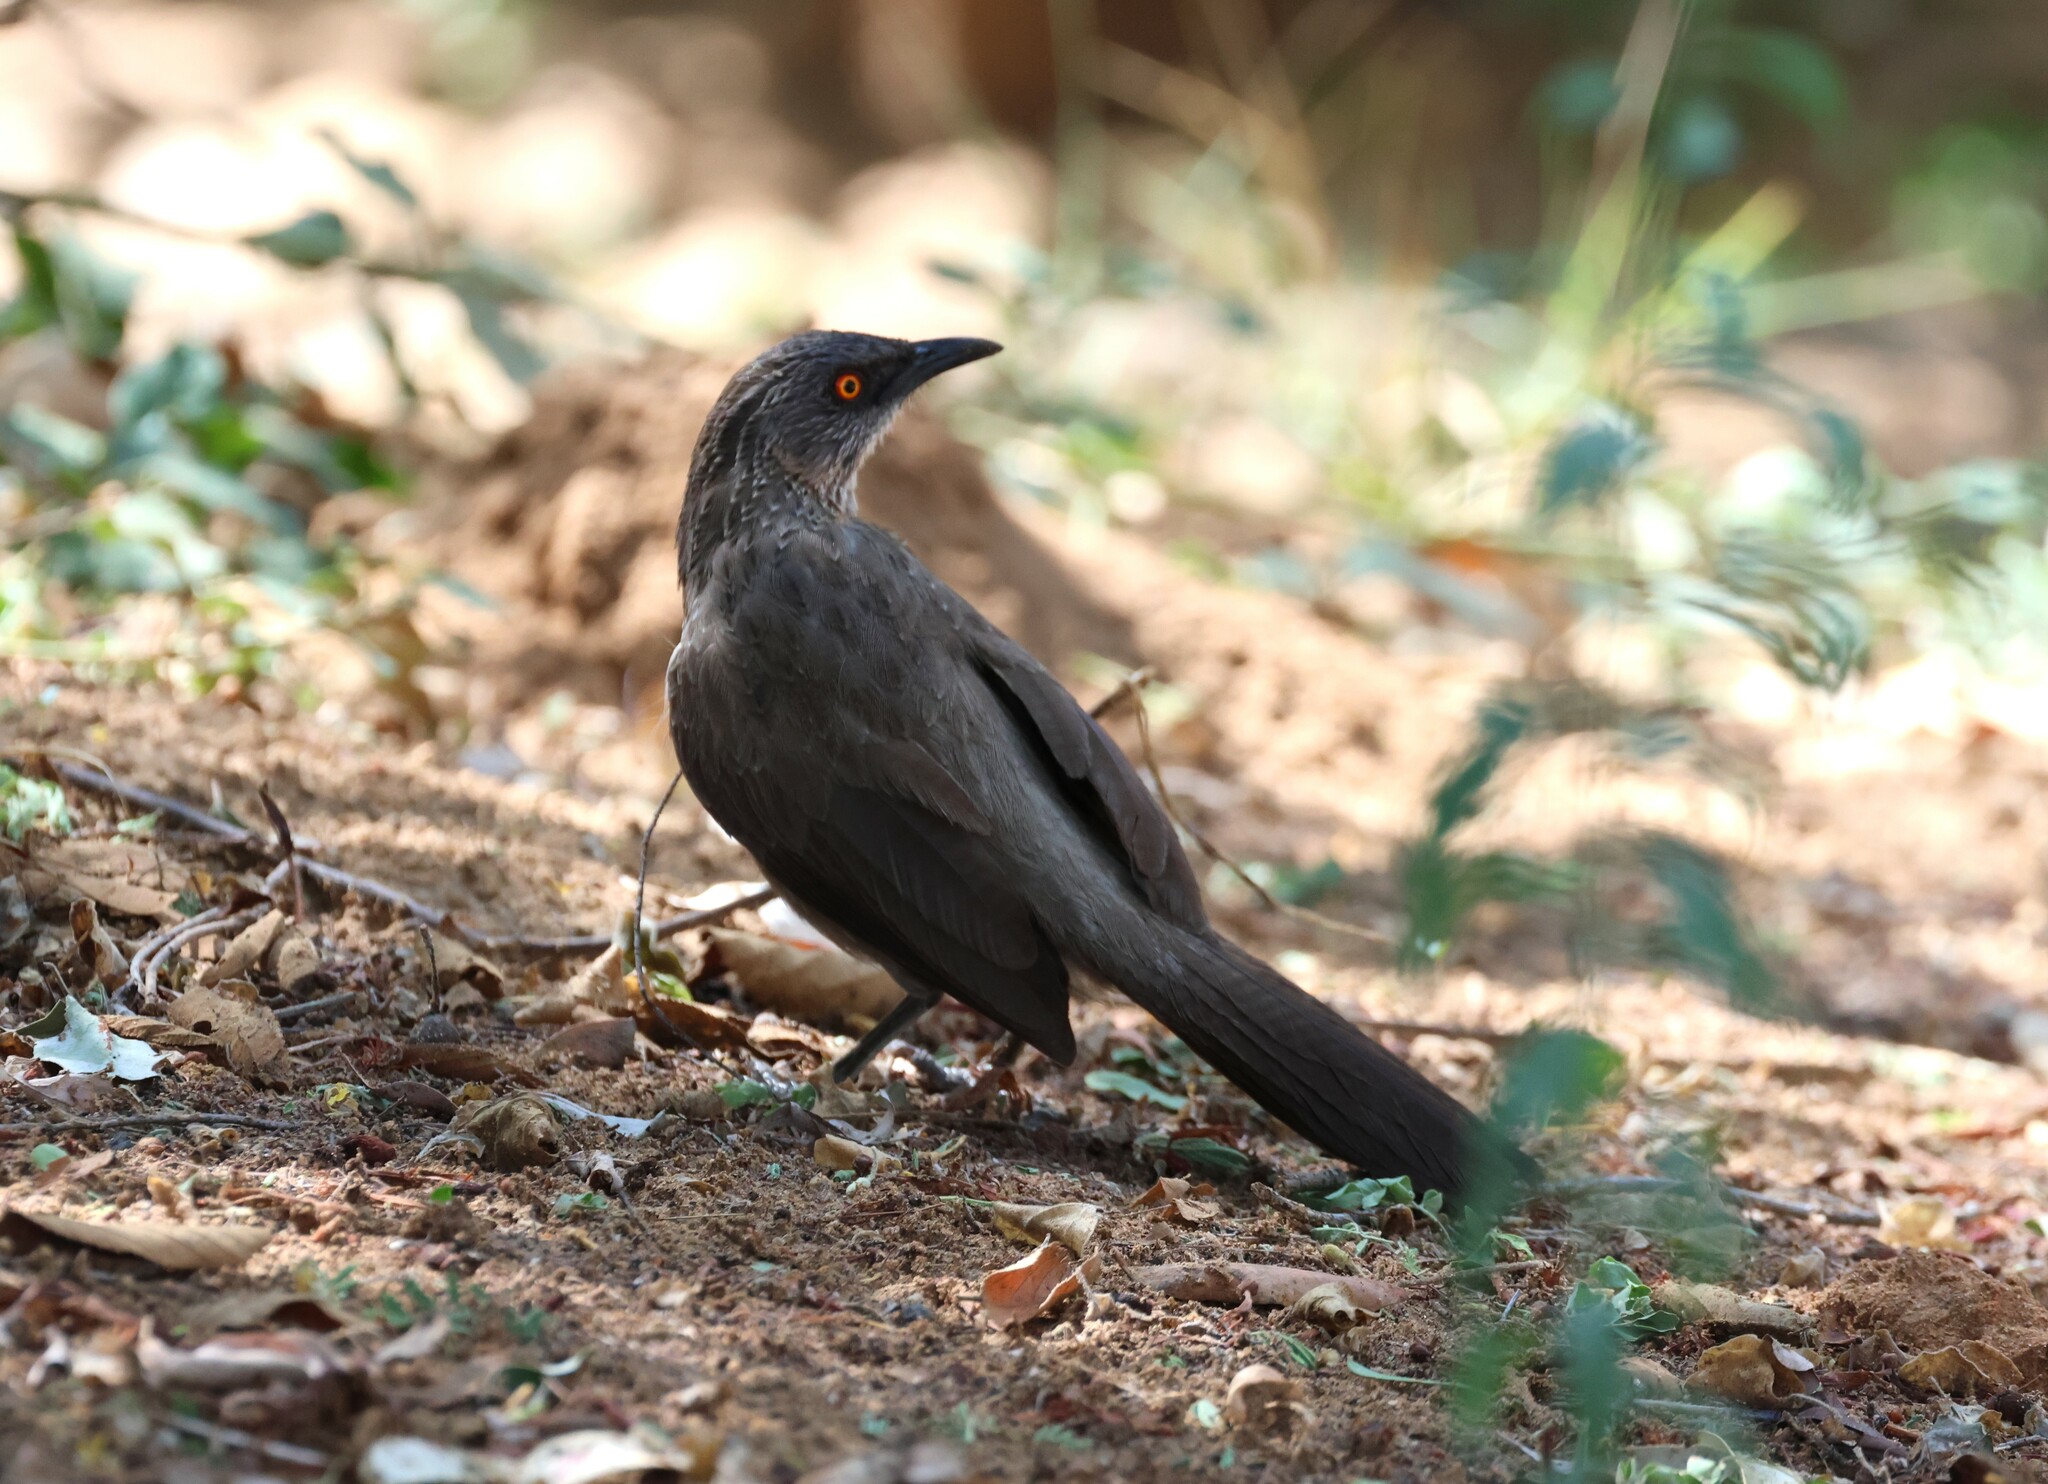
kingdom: Animalia
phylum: Chordata
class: Aves
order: Passeriformes
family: Leiothrichidae
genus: Turdoides
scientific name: Turdoides jardineii
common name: Arrow-marked babbler
